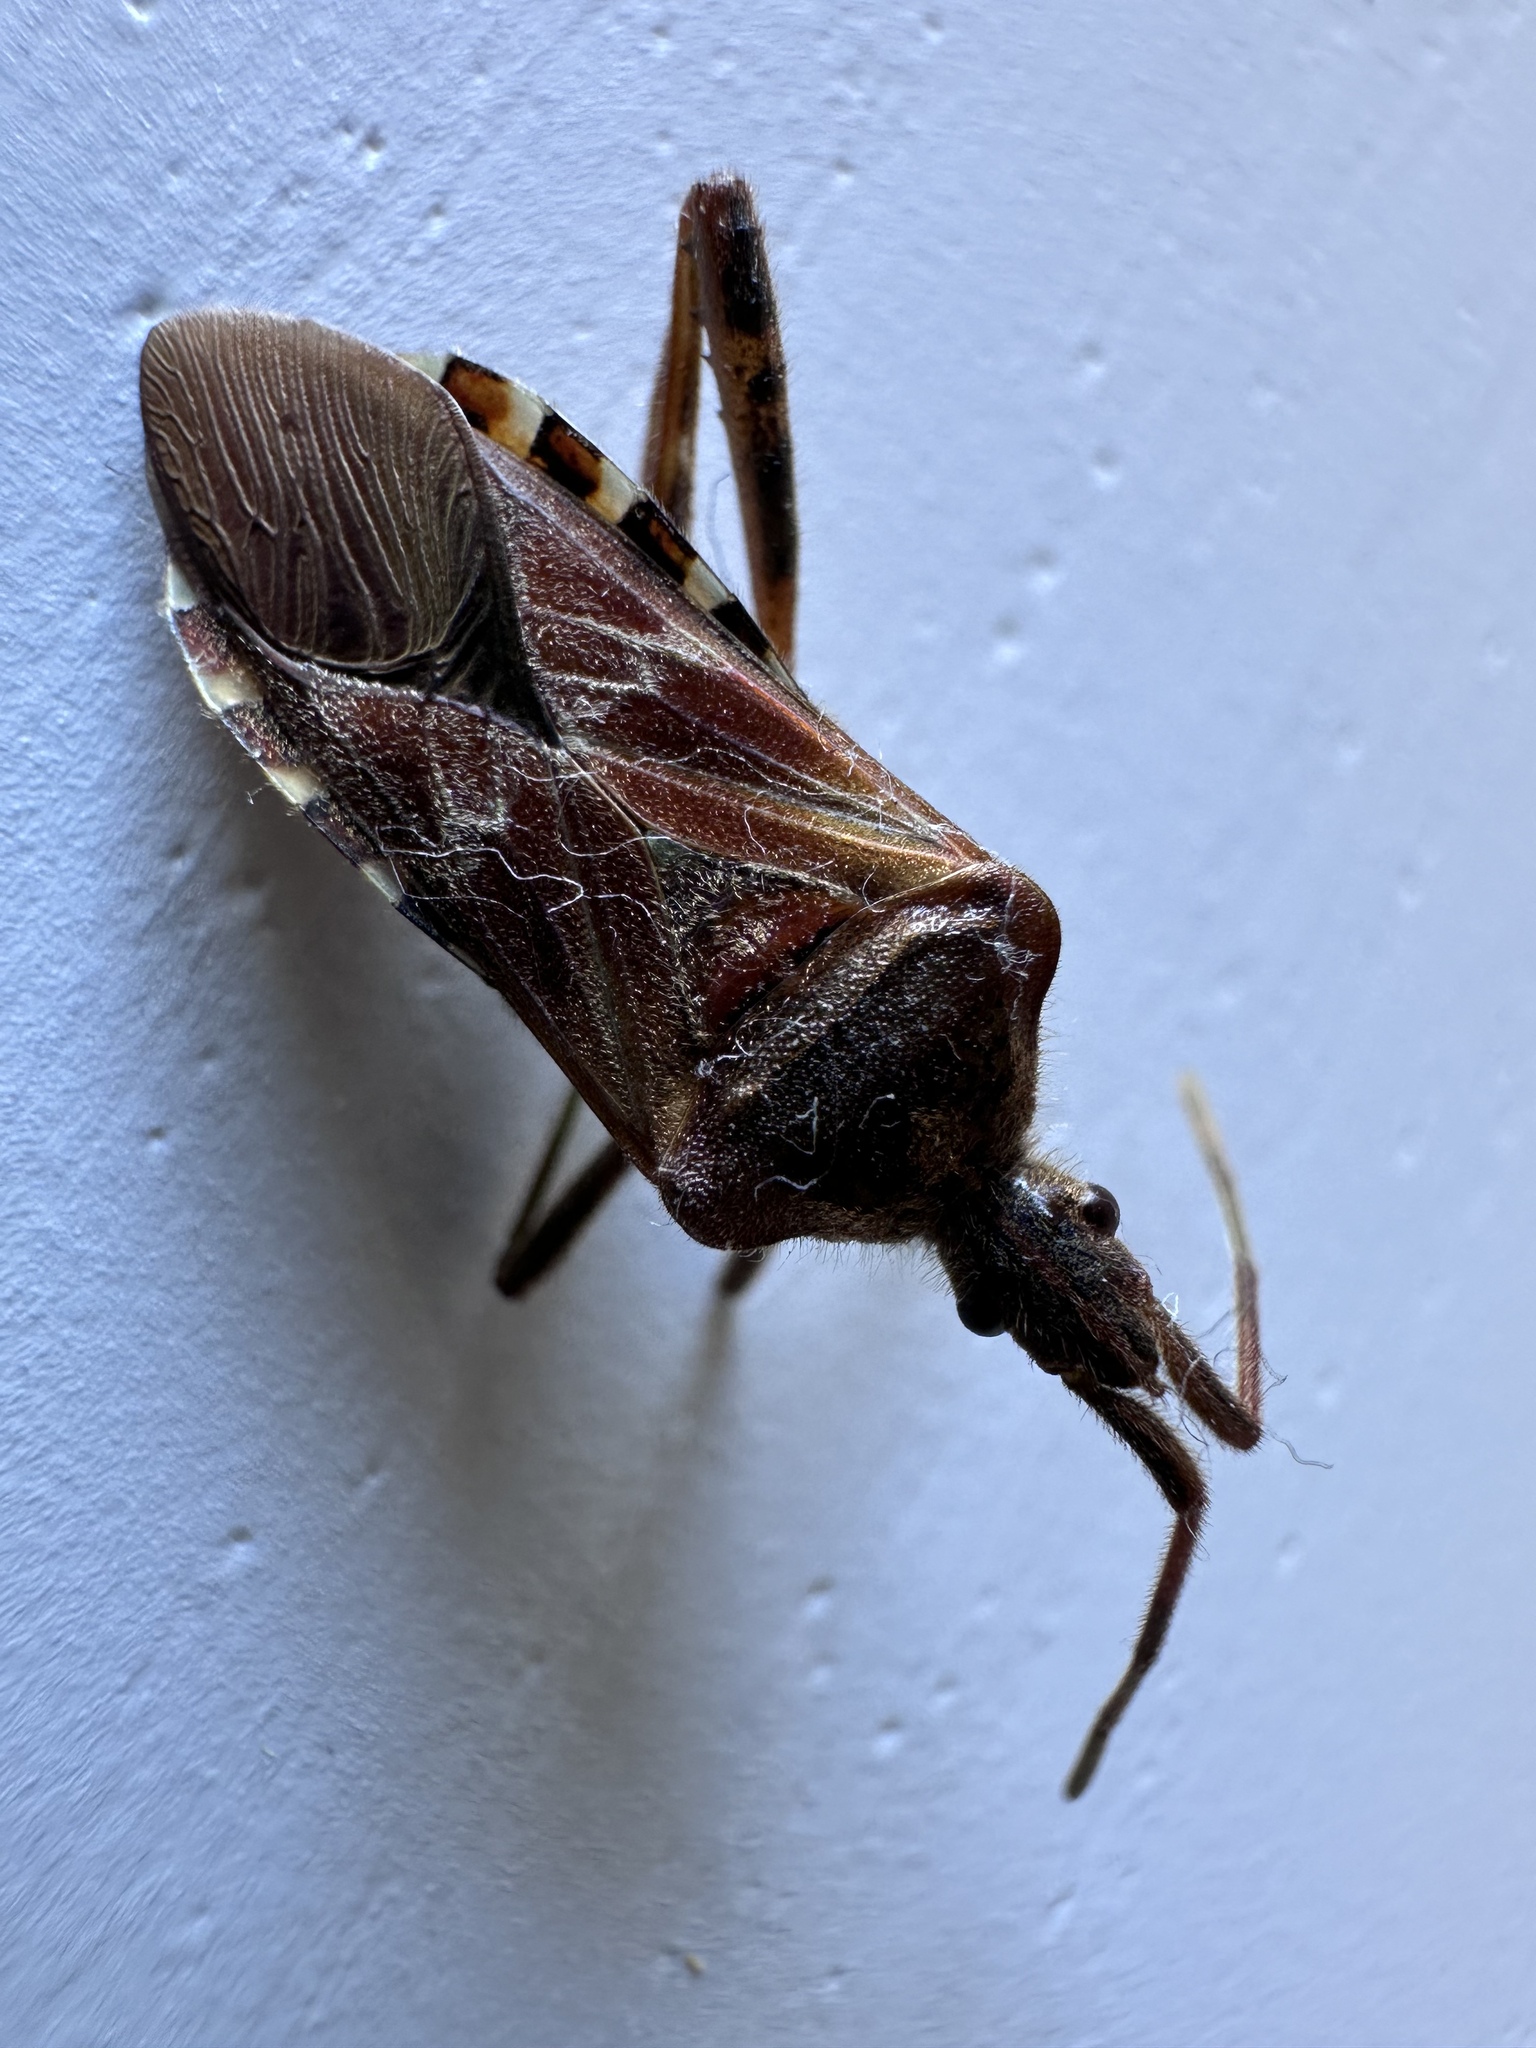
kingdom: Animalia
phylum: Arthropoda
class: Insecta
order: Hemiptera
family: Coreidae
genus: Leptoglossus
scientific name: Leptoglossus occidentalis
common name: Western conifer-seed bug
